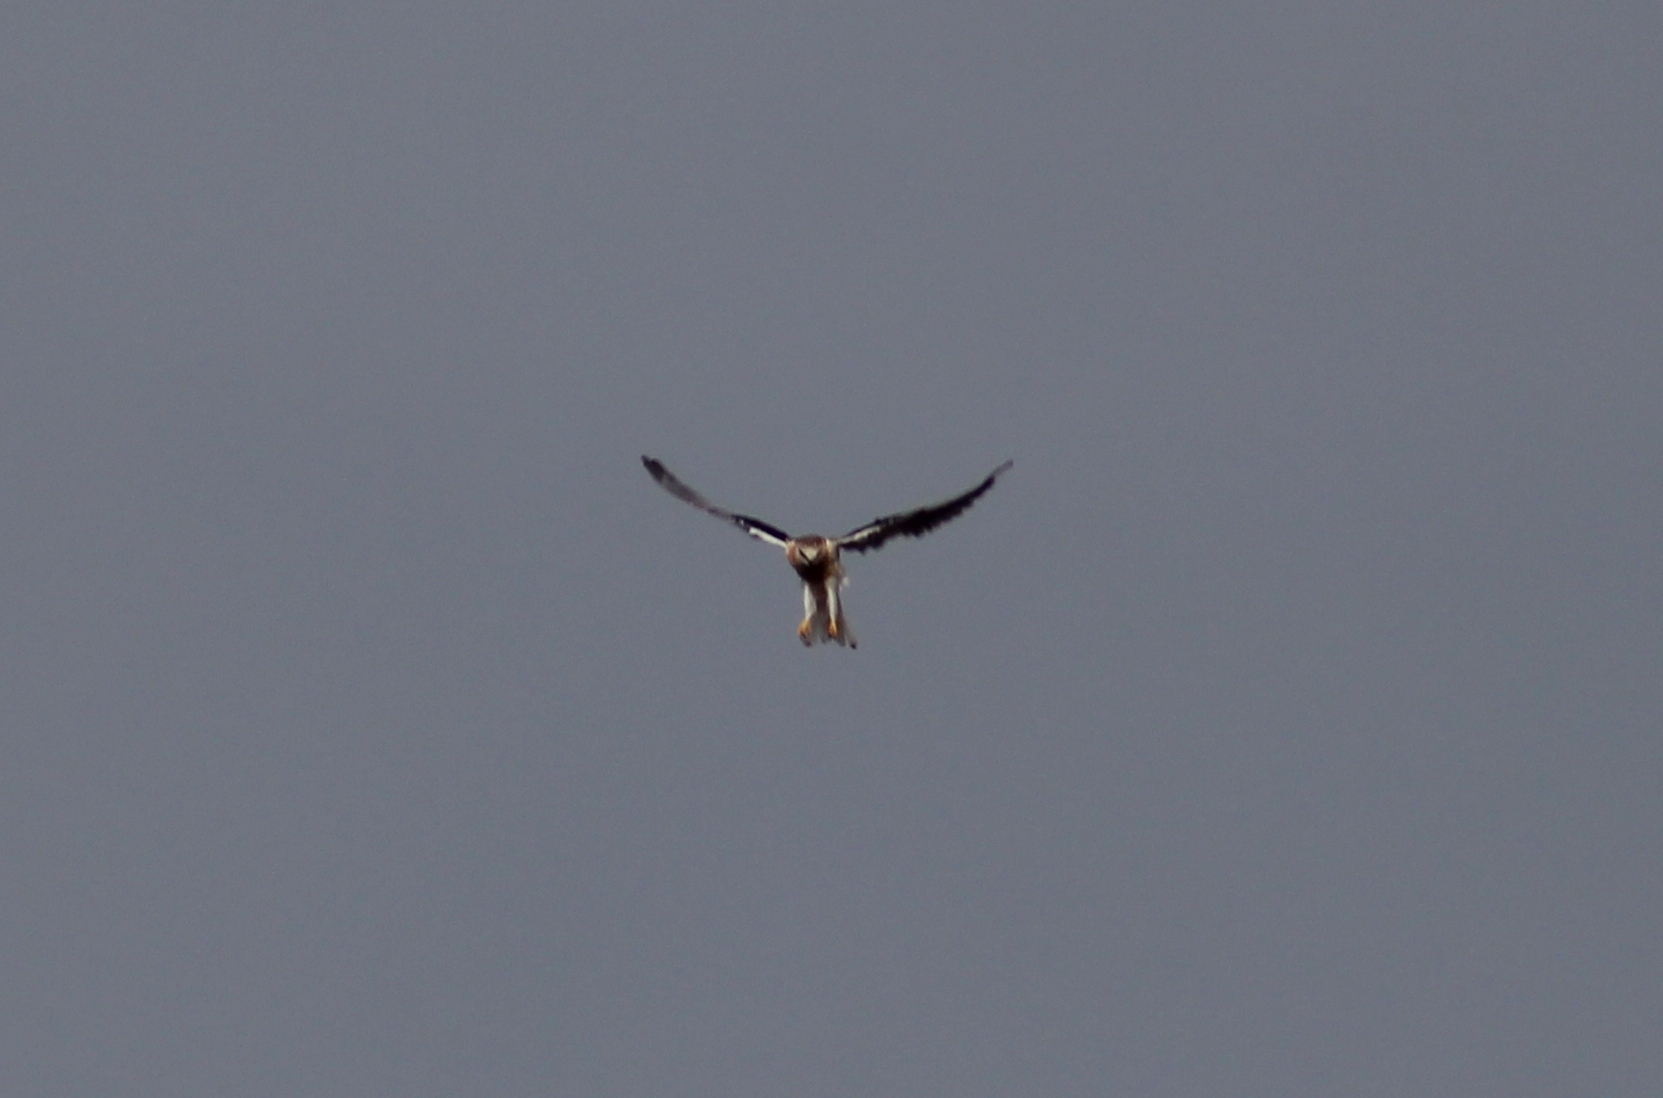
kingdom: Animalia
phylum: Chordata
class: Aves
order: Accipitriformes
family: Accipitridae
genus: Elanus
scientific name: Elanus leucurus
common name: White-tailed kite
